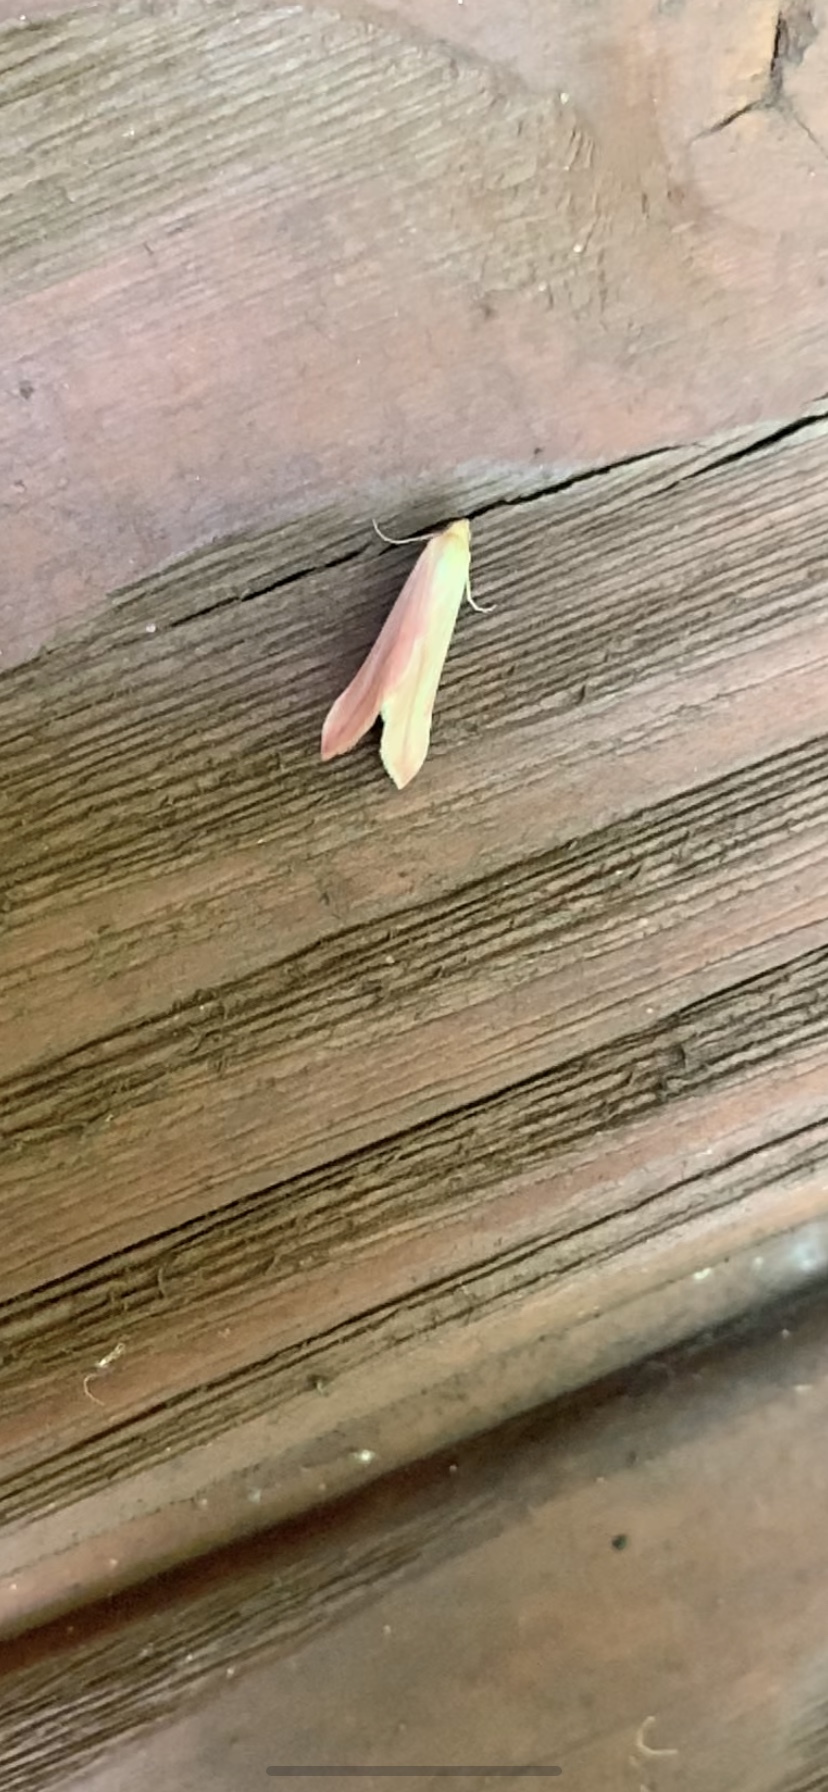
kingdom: Animalia
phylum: Arthropoda
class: Insecta
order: Lepidoptera
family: Geometridae
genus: Rhodometra
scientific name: Rhodometra sacraria
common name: Vestal
